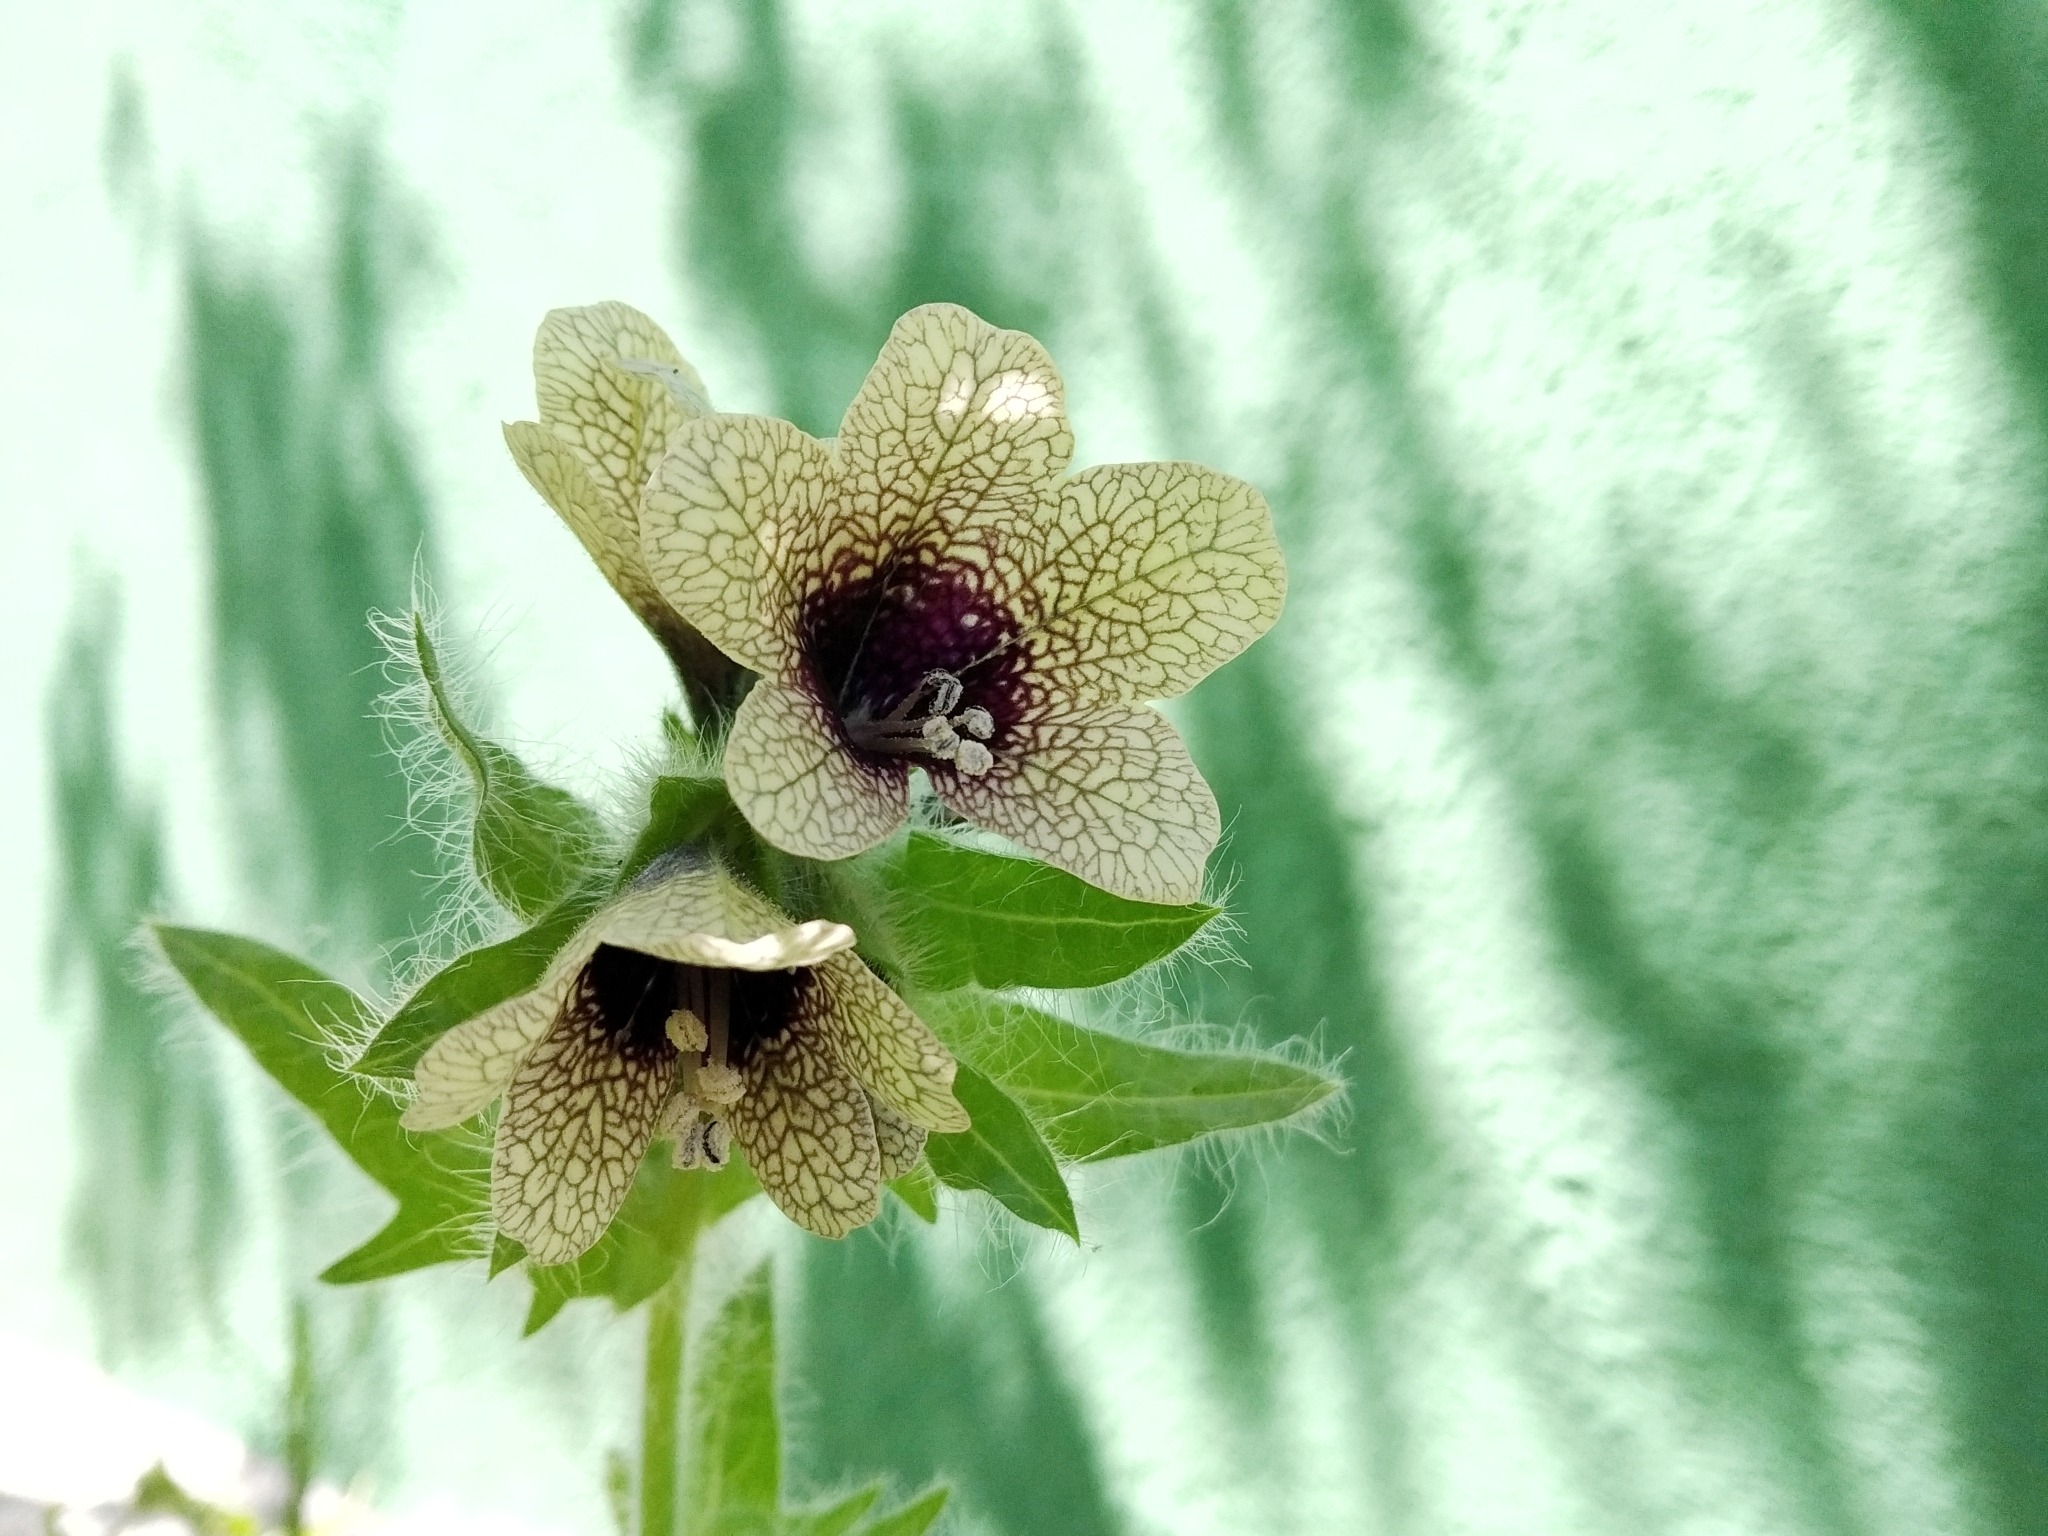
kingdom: Plantae
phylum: Tracheophyta
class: Magnoliopsida
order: Solanales
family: Solanaceae
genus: Hyoscyamus
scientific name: Hyoscyamus niger
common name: Henbane
